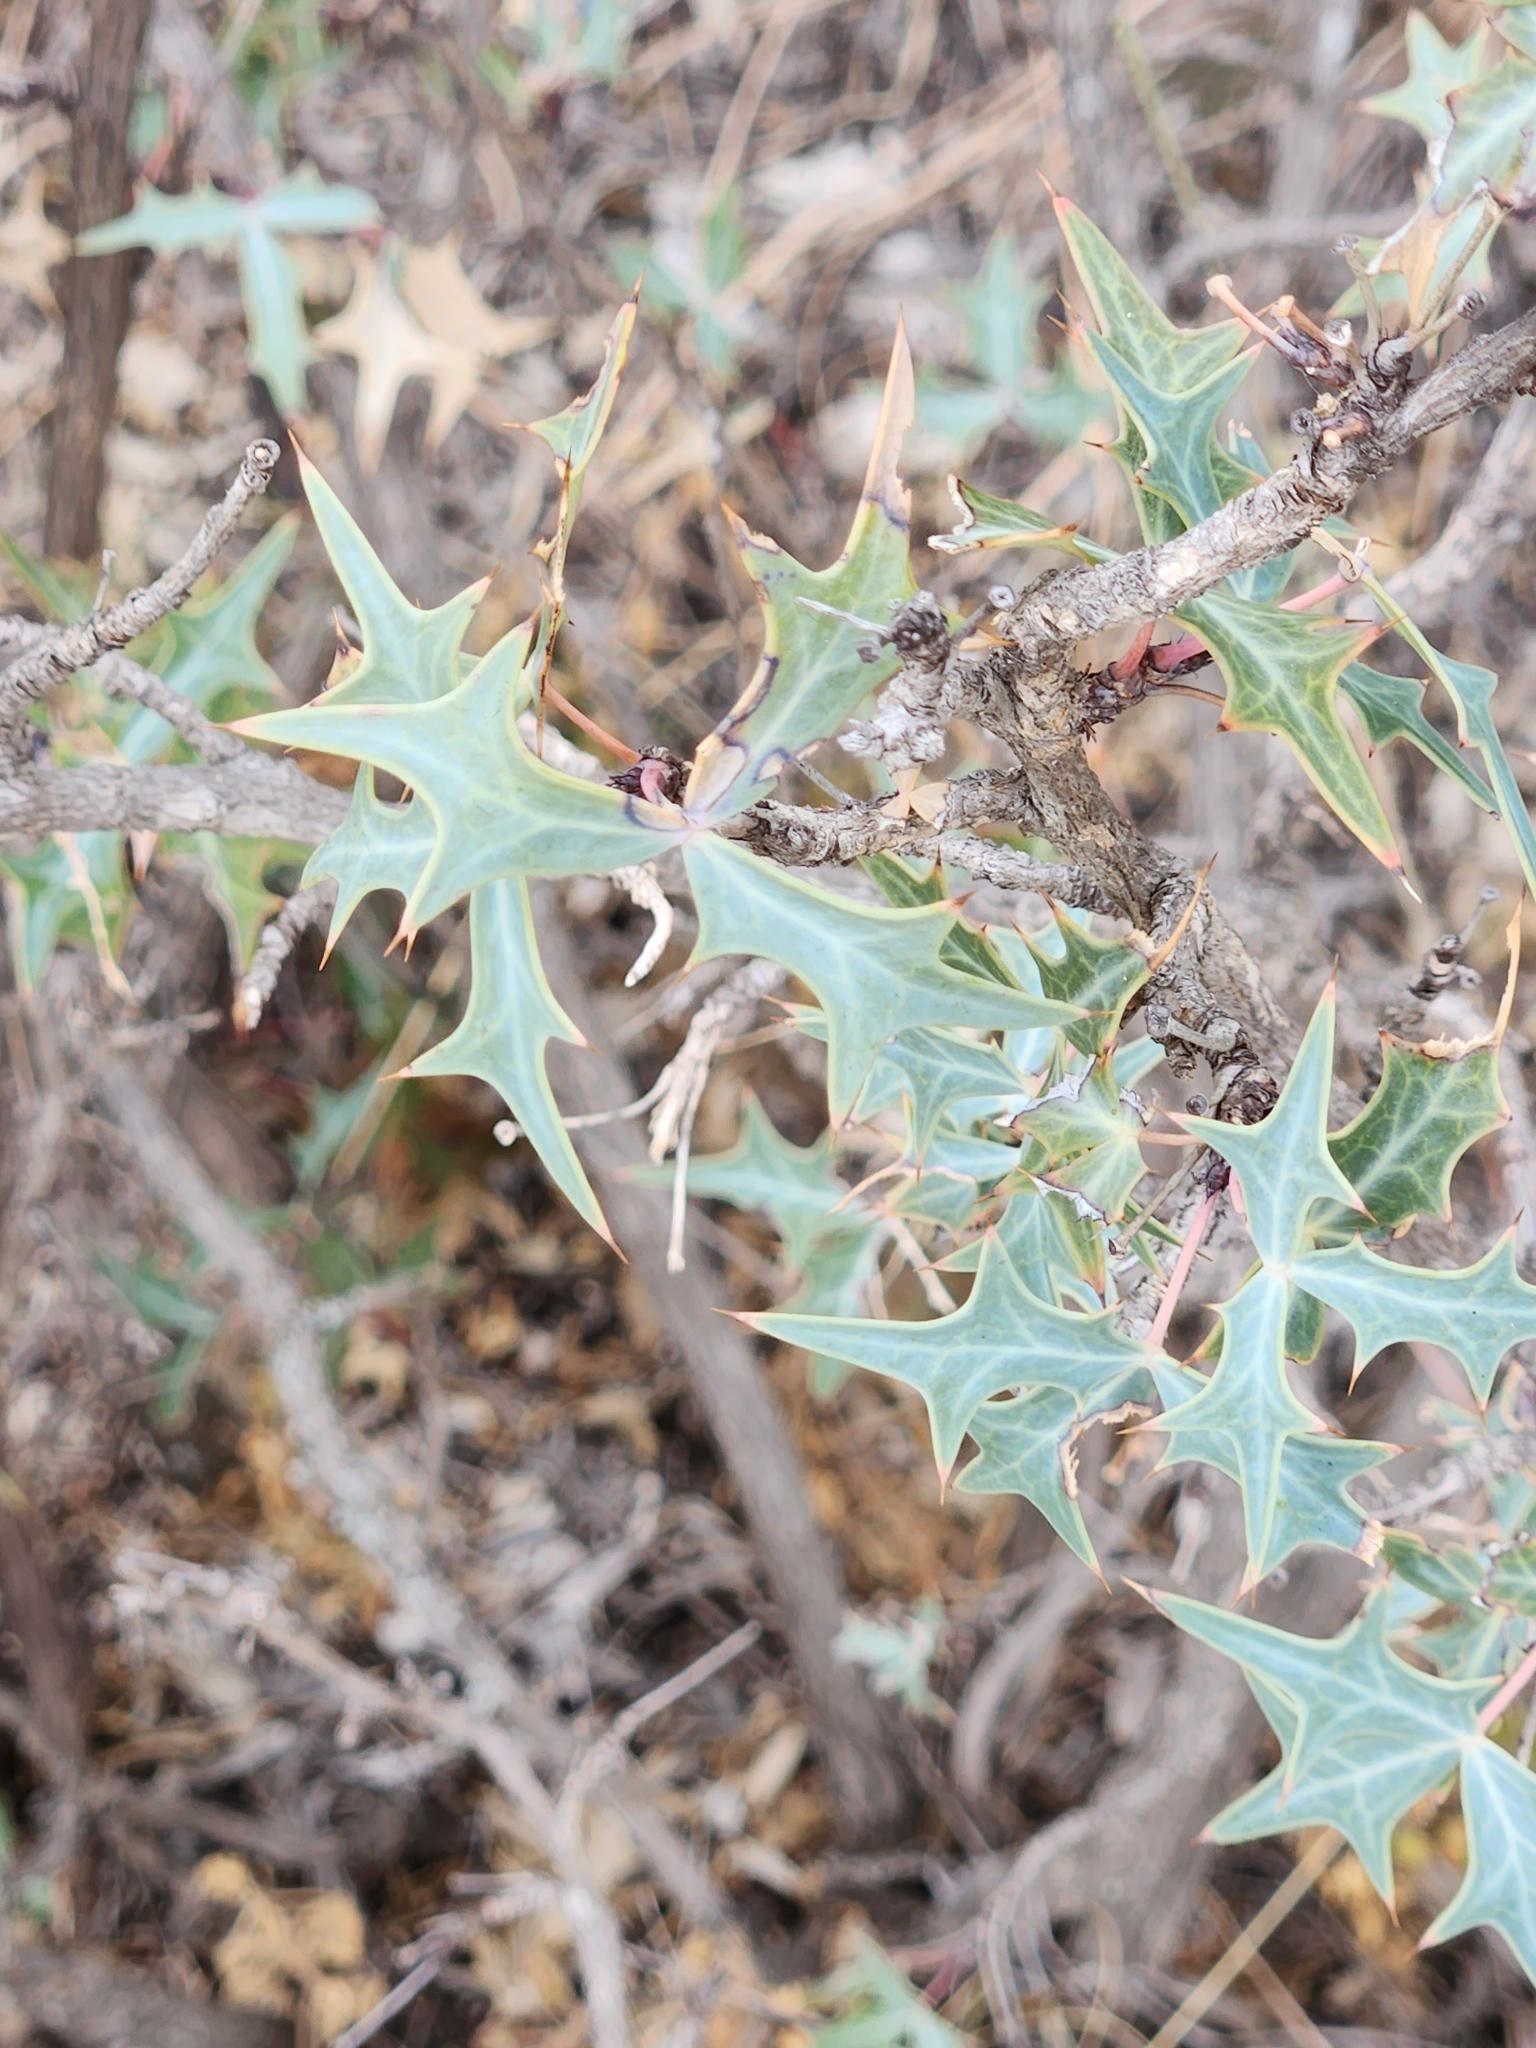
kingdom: Plantae
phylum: Tracheophyta
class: Magnoliopsida
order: Ranunculales
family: Berberidaceae
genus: Alloberberis
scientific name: Alloberberis trifoliolata
